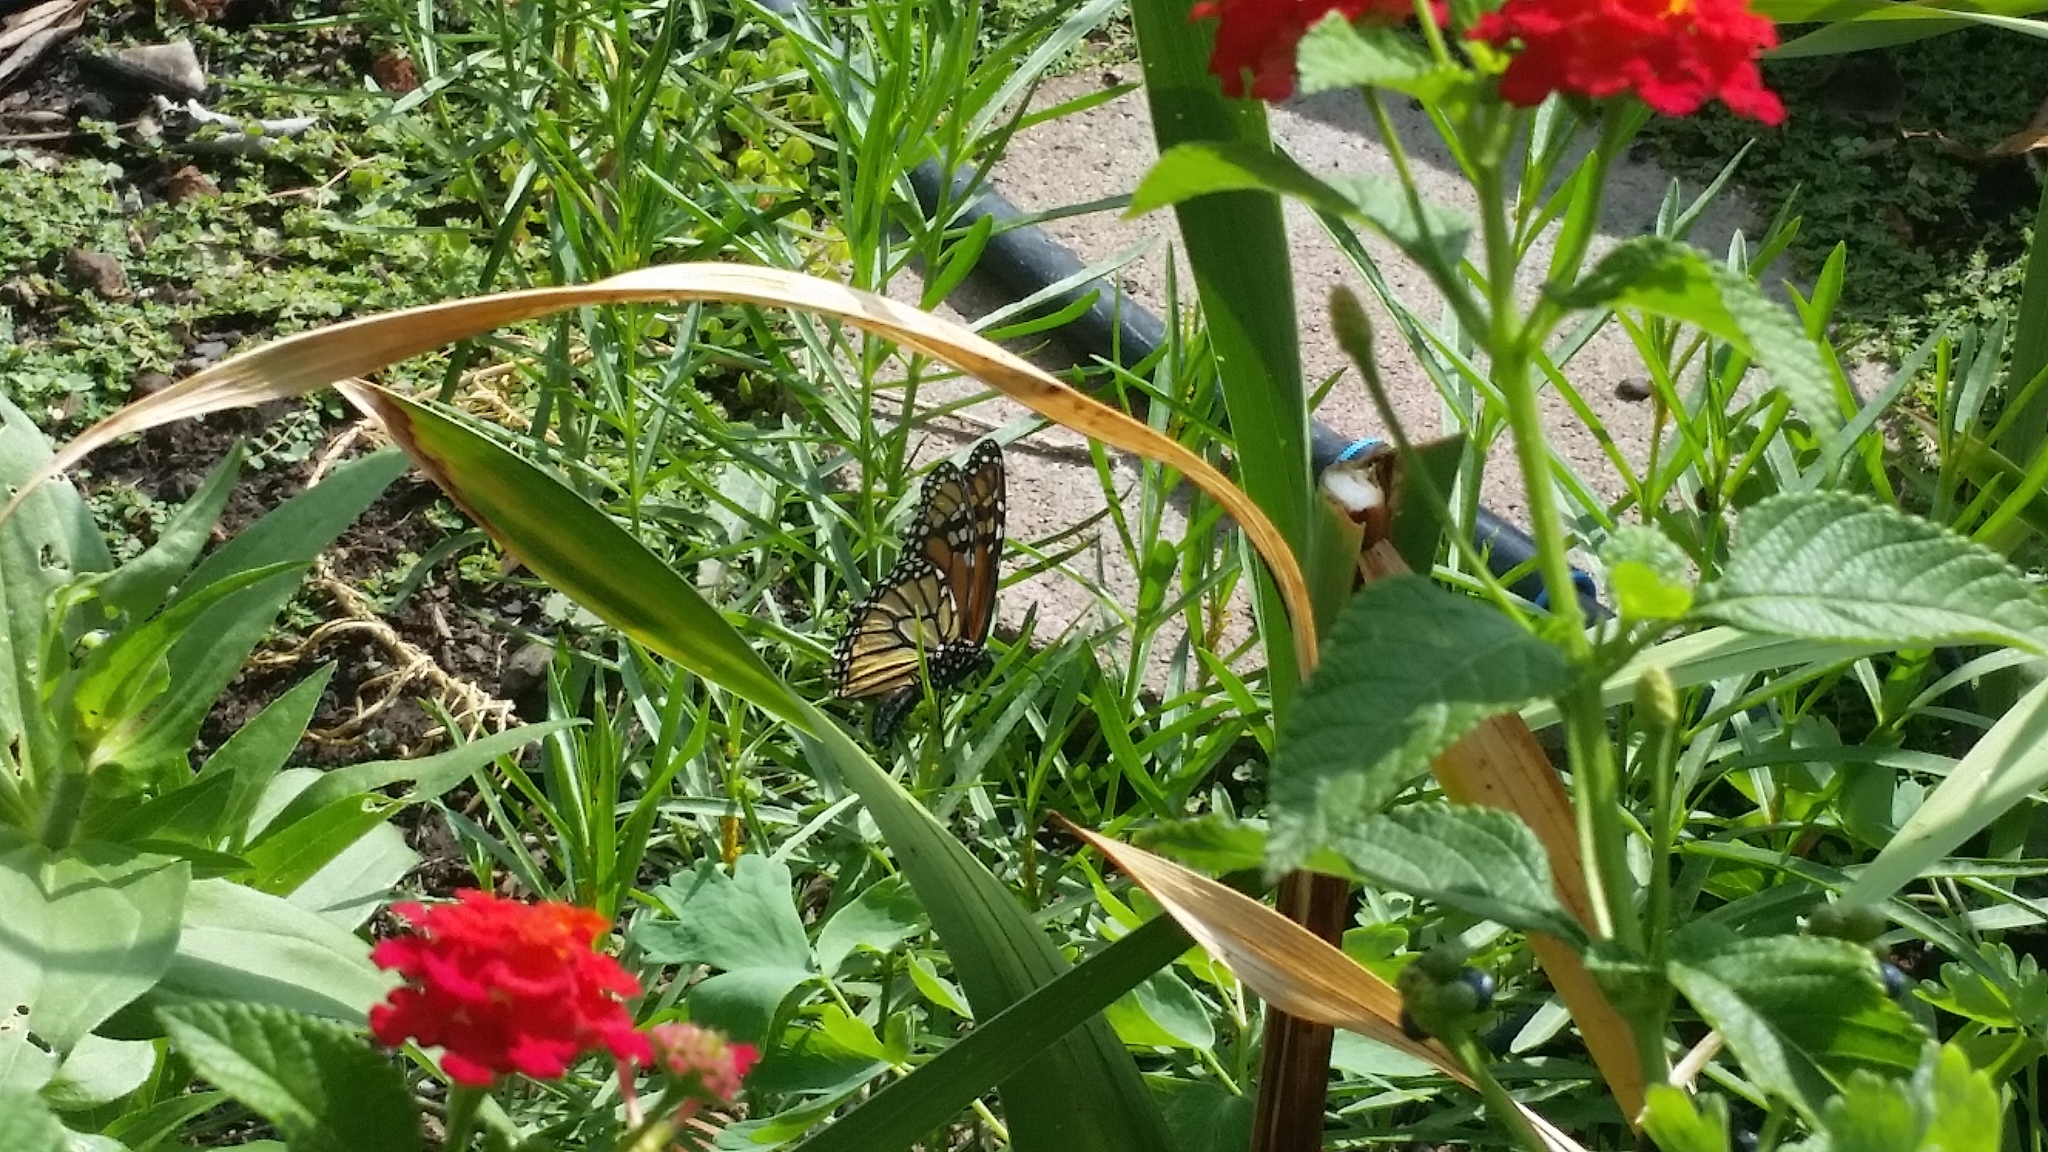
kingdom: Animalia
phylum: Arthropoda
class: Insecta
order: Lepidoptera
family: Nymphalidae
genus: Danaus
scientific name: Danaus plexippus
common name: Monarch
